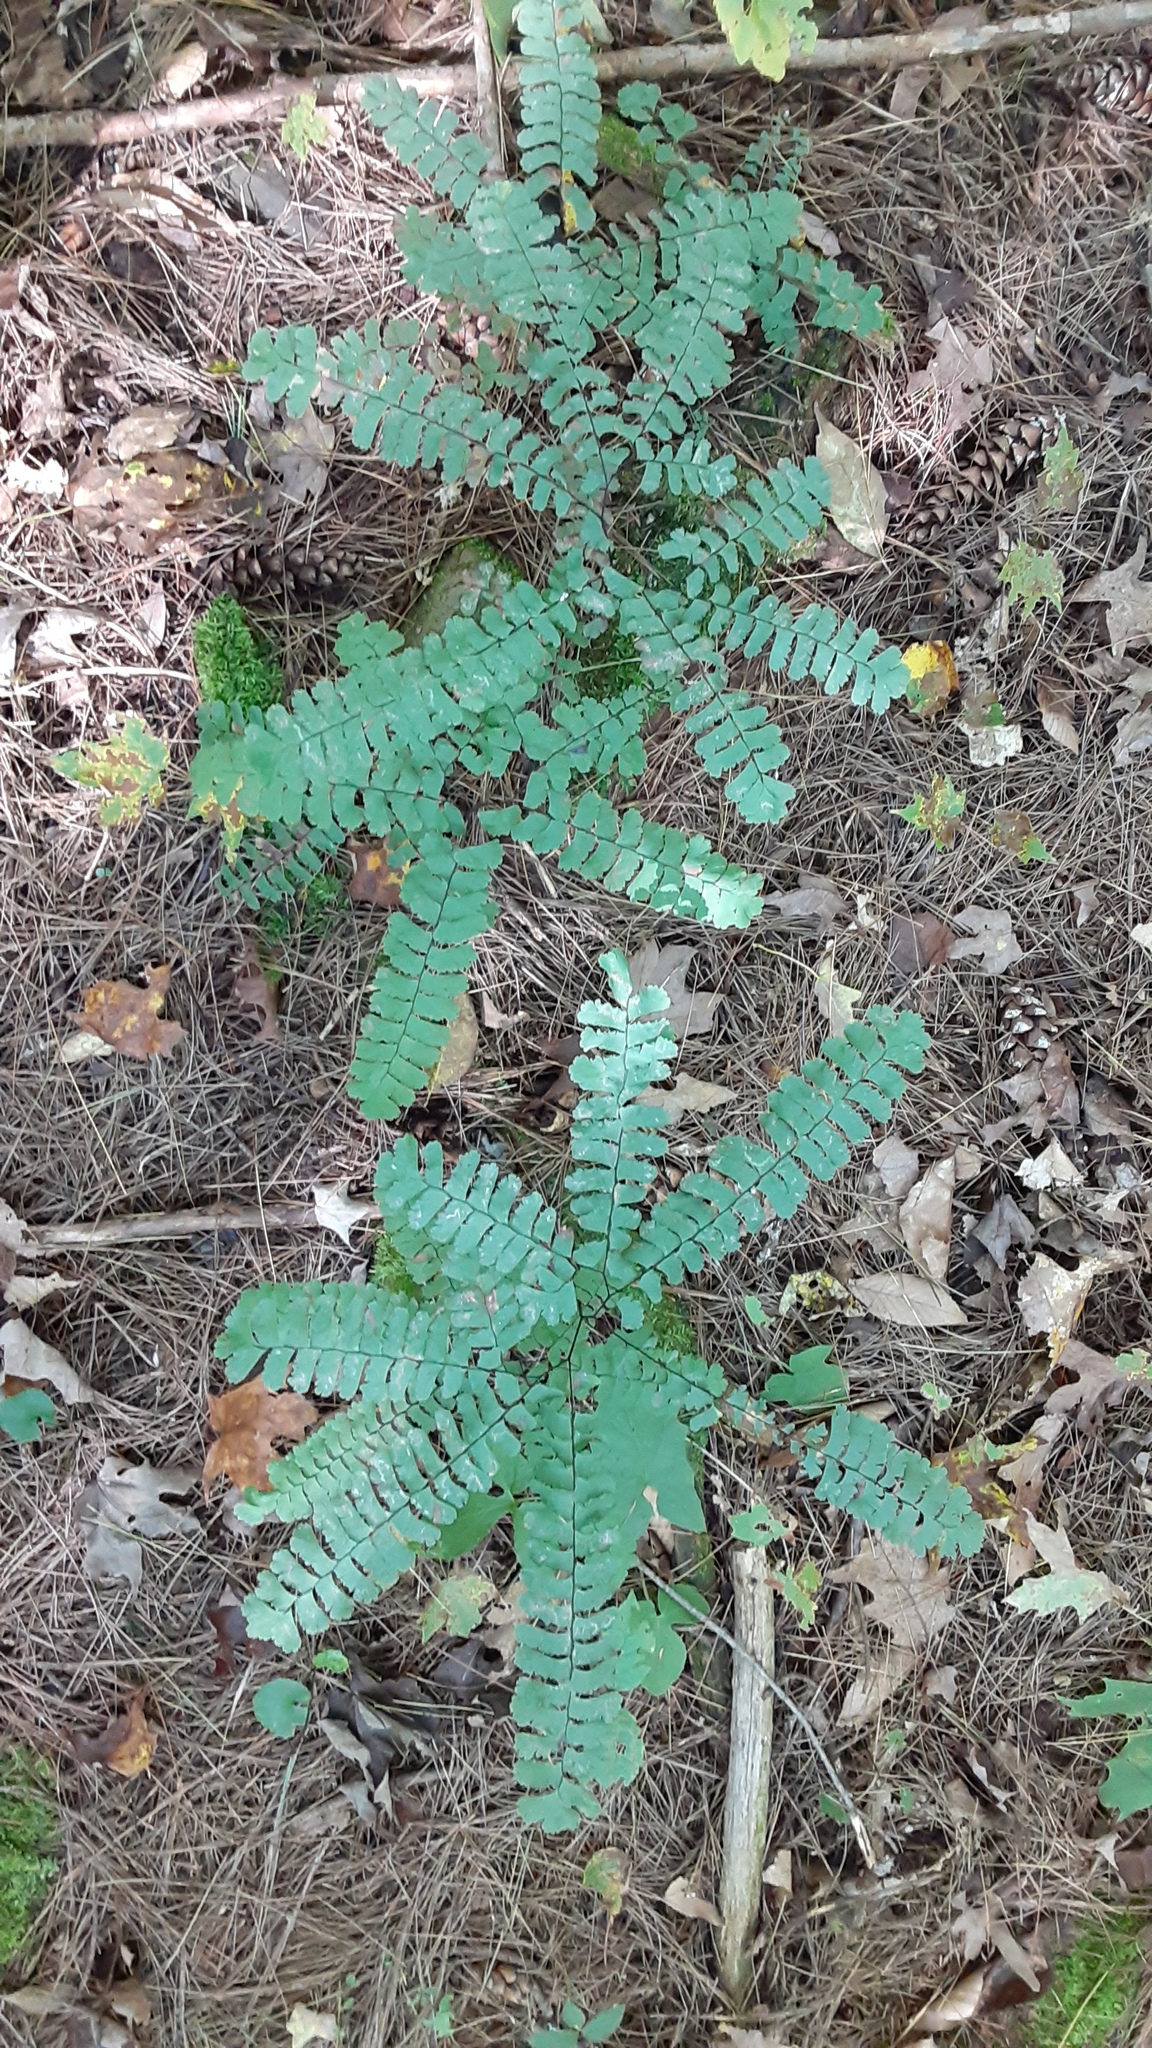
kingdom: Plantae
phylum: Tracheophyta
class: Polypodiopsida
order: Polypodiales
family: Pteridaceae
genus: Adiantum
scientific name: Adiantum pedatum
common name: Five-finger fern
